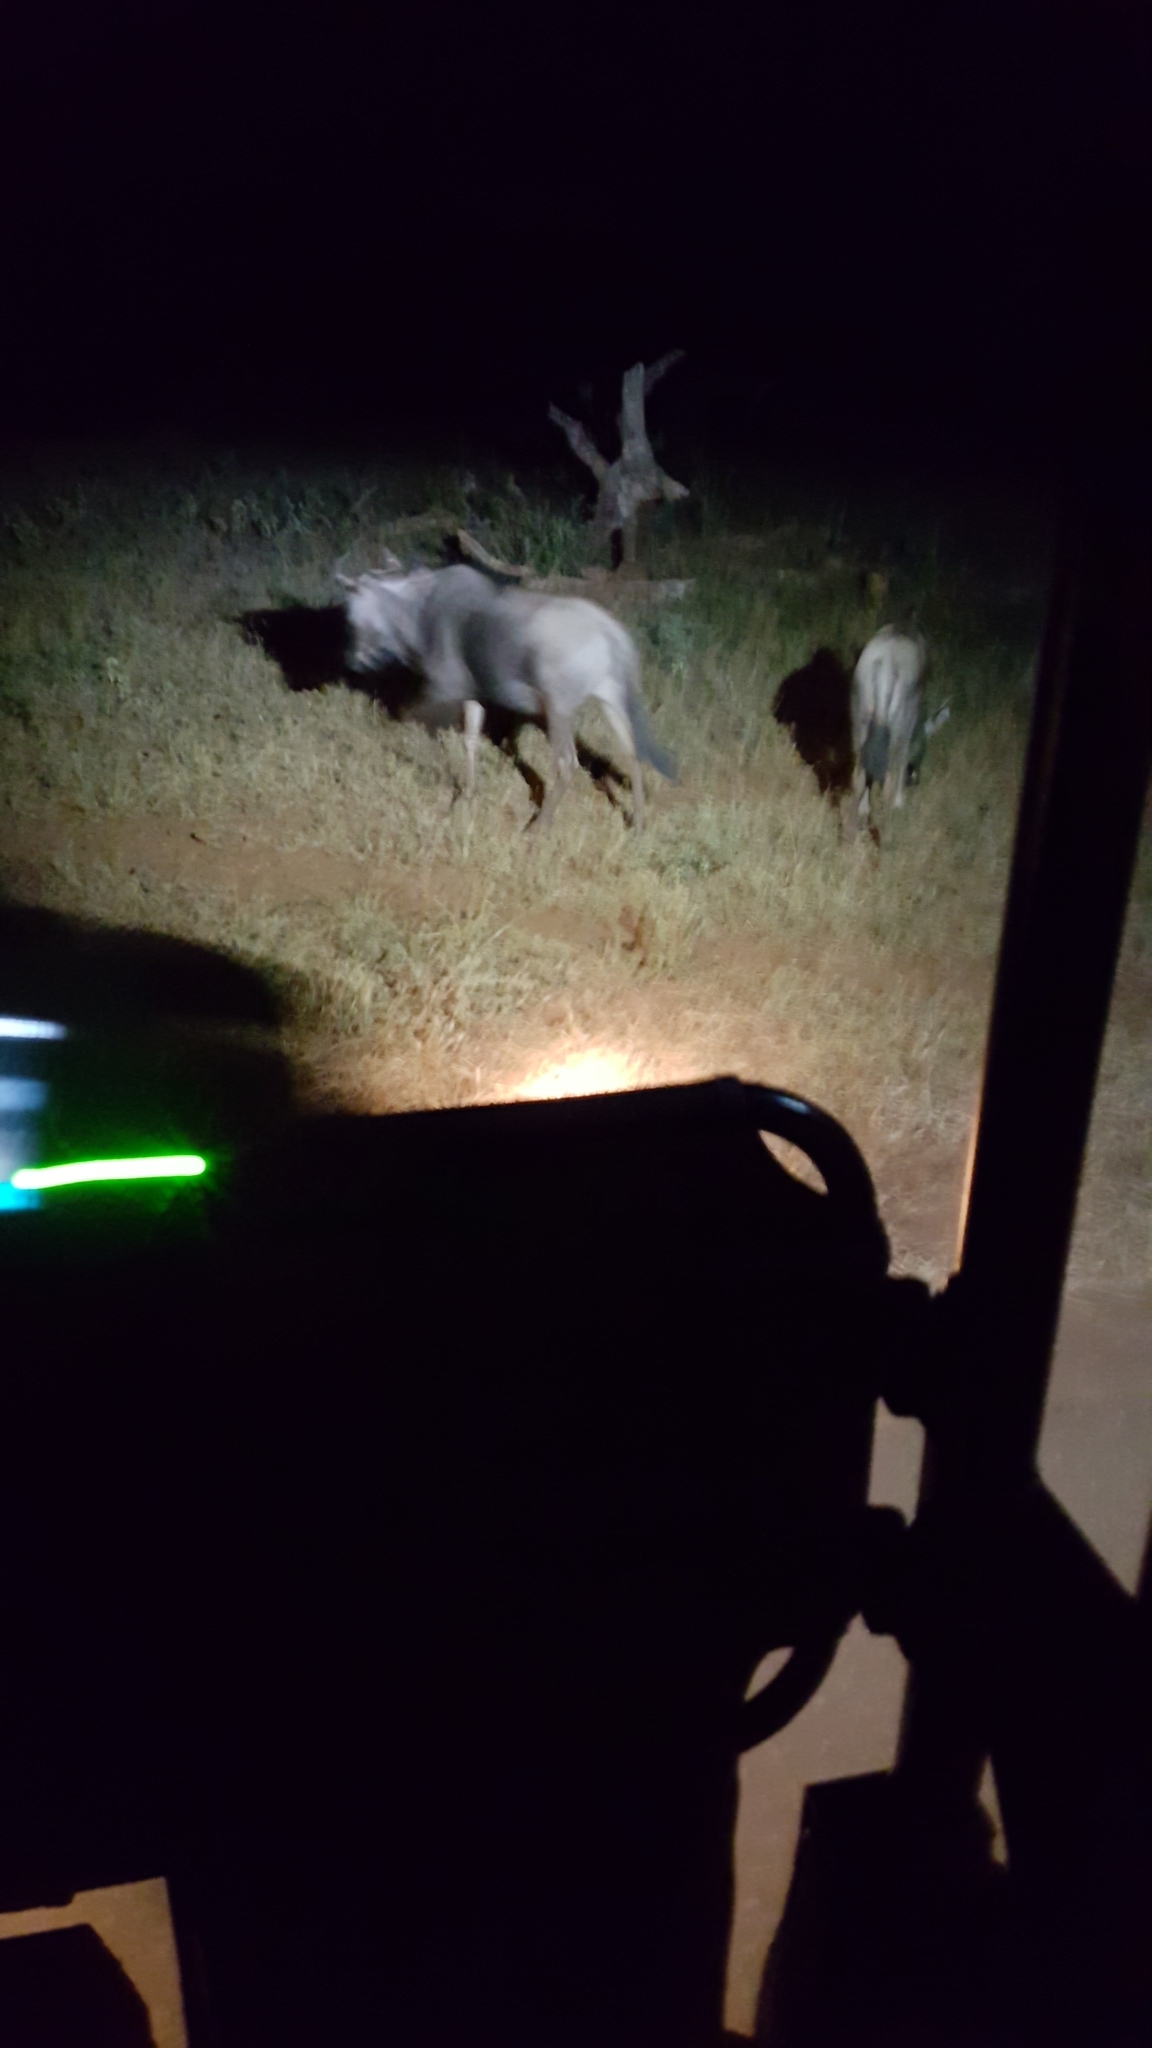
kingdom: Animalia
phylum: Chordata
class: Mammalia
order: Artiodactyla
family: Bovidae
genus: Connochaetes
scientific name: Connochaetes taurinus
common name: Blue wildebeest
